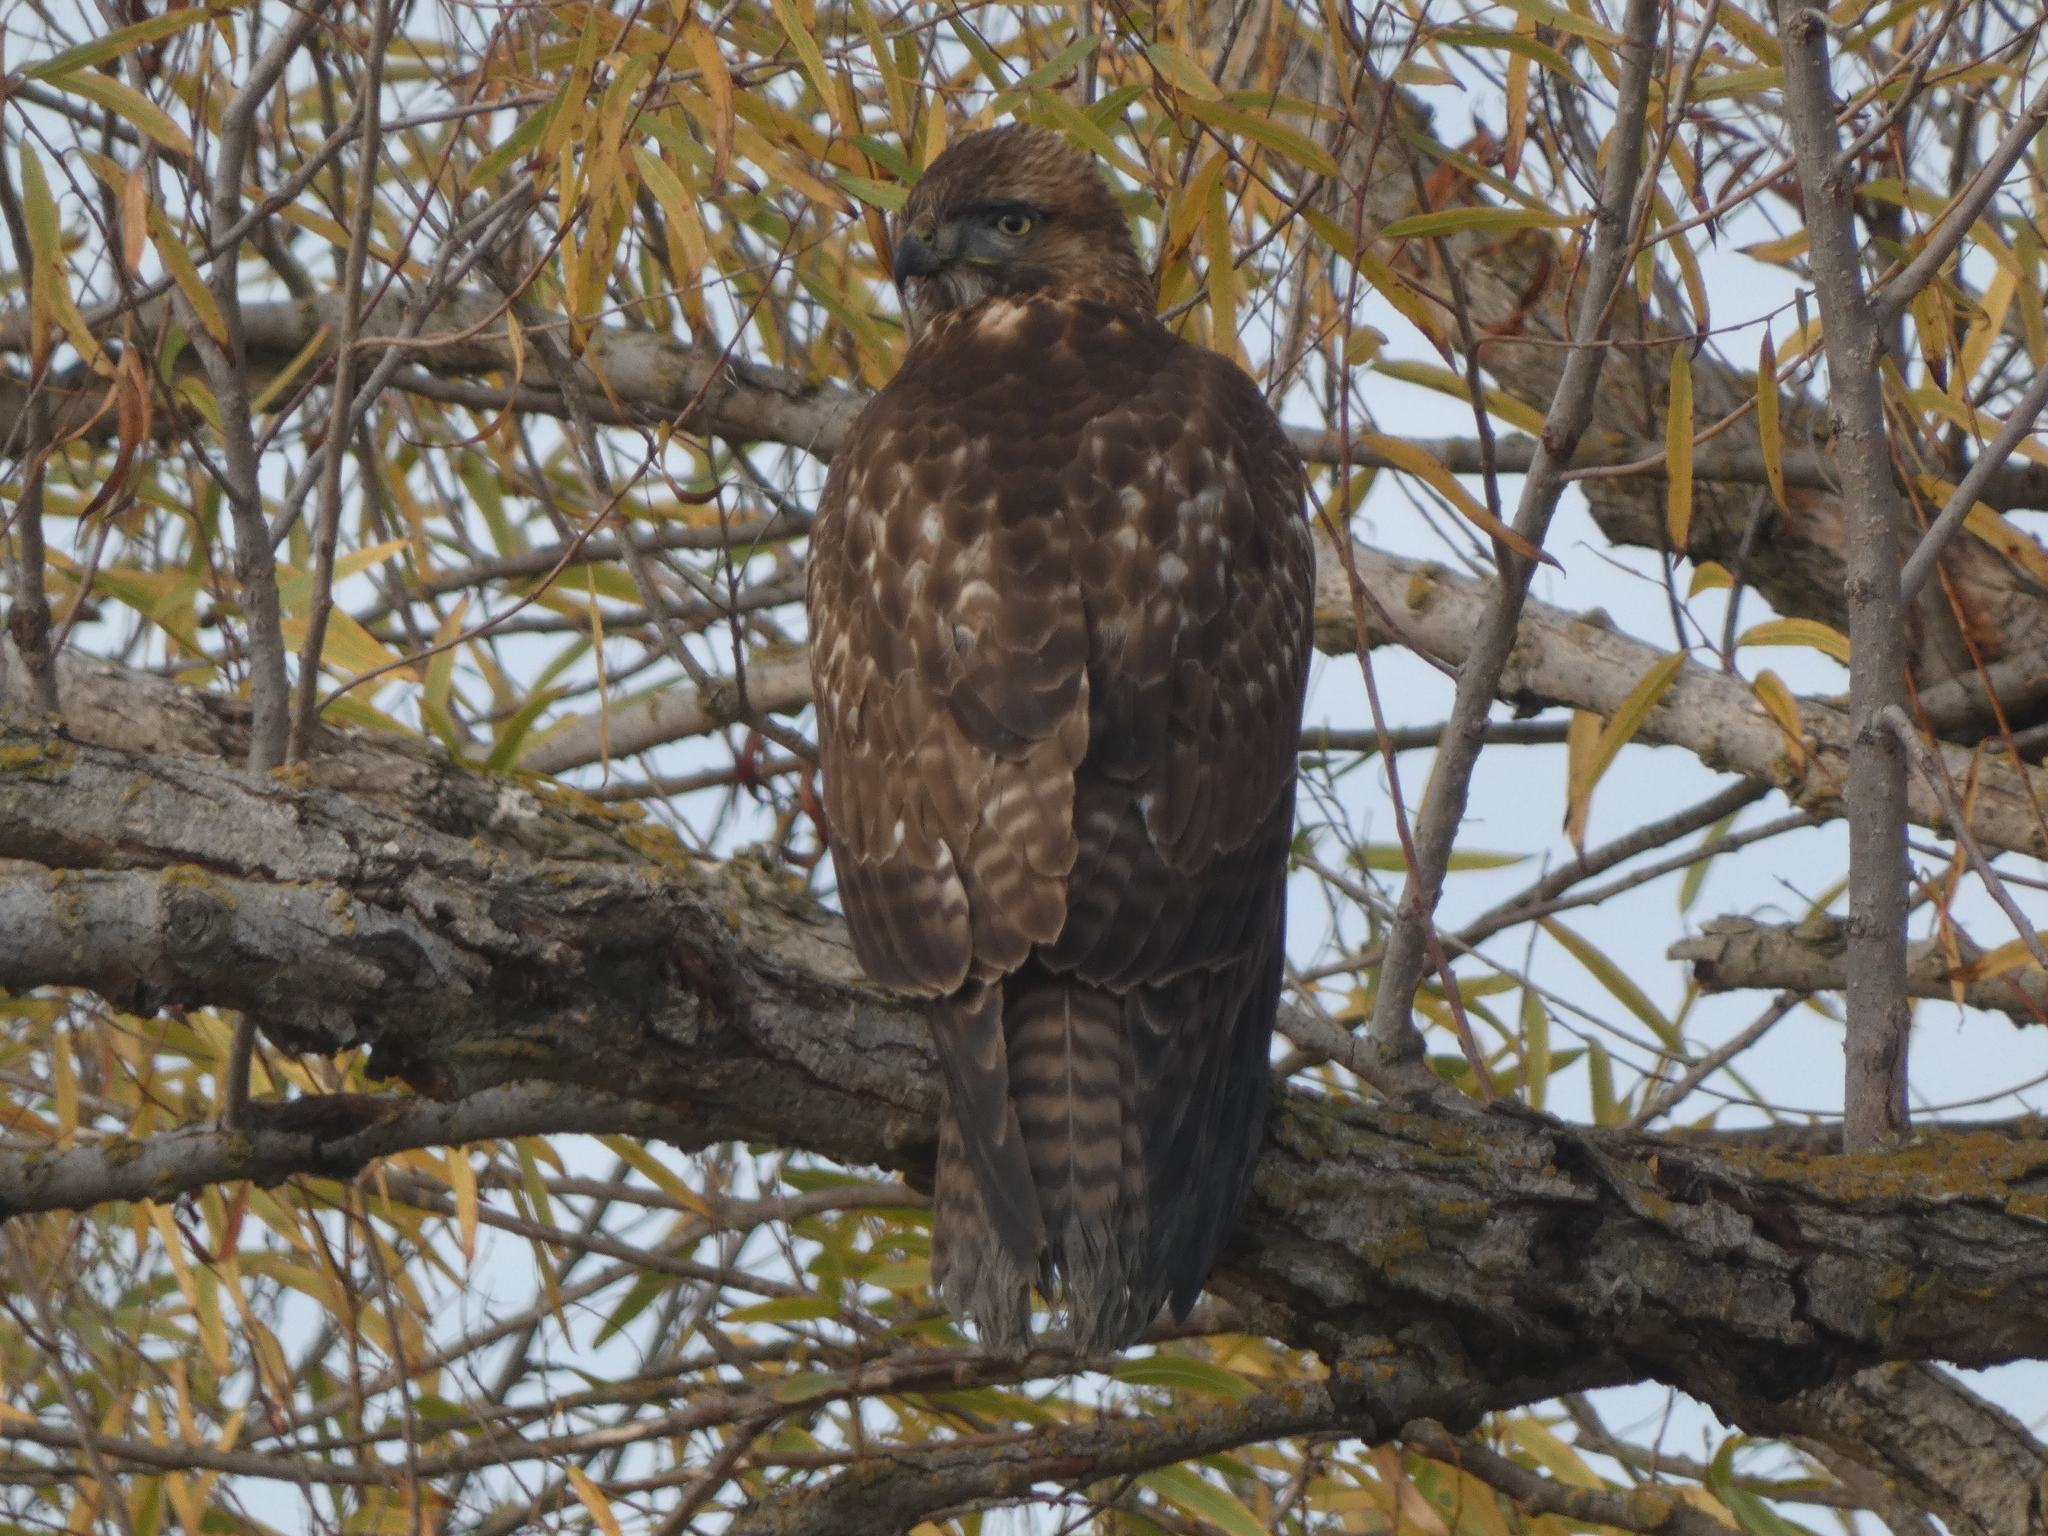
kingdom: Animalia
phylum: Chordata
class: Aves
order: Accipitriformes
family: Accipitridae
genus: Buteo
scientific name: Buteo jamaicensis
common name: Red-tailed hawk
